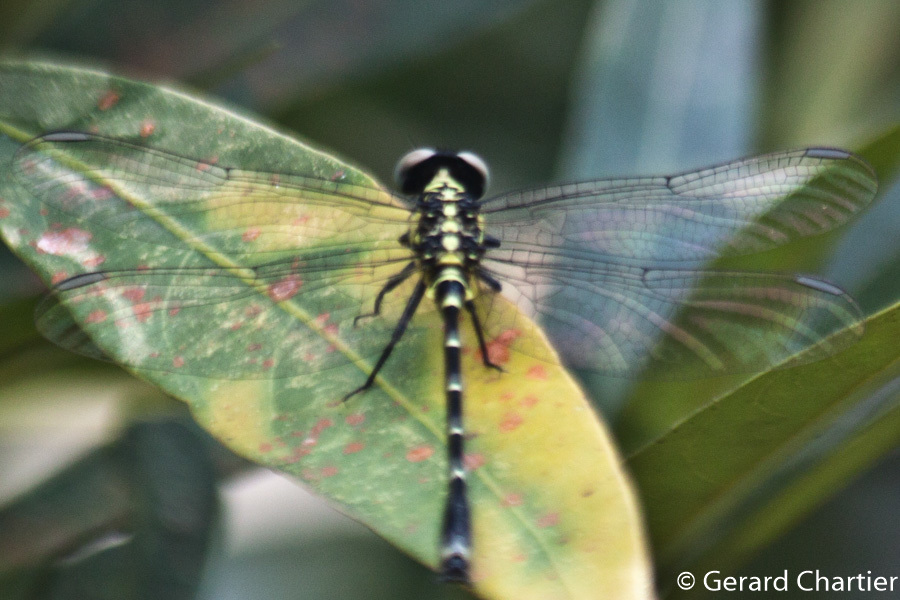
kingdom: Animalia
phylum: Arthropoda
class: Insecta
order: Odonata
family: Gomphidae
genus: Burmagomphus
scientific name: Burmagomphus asahinai
